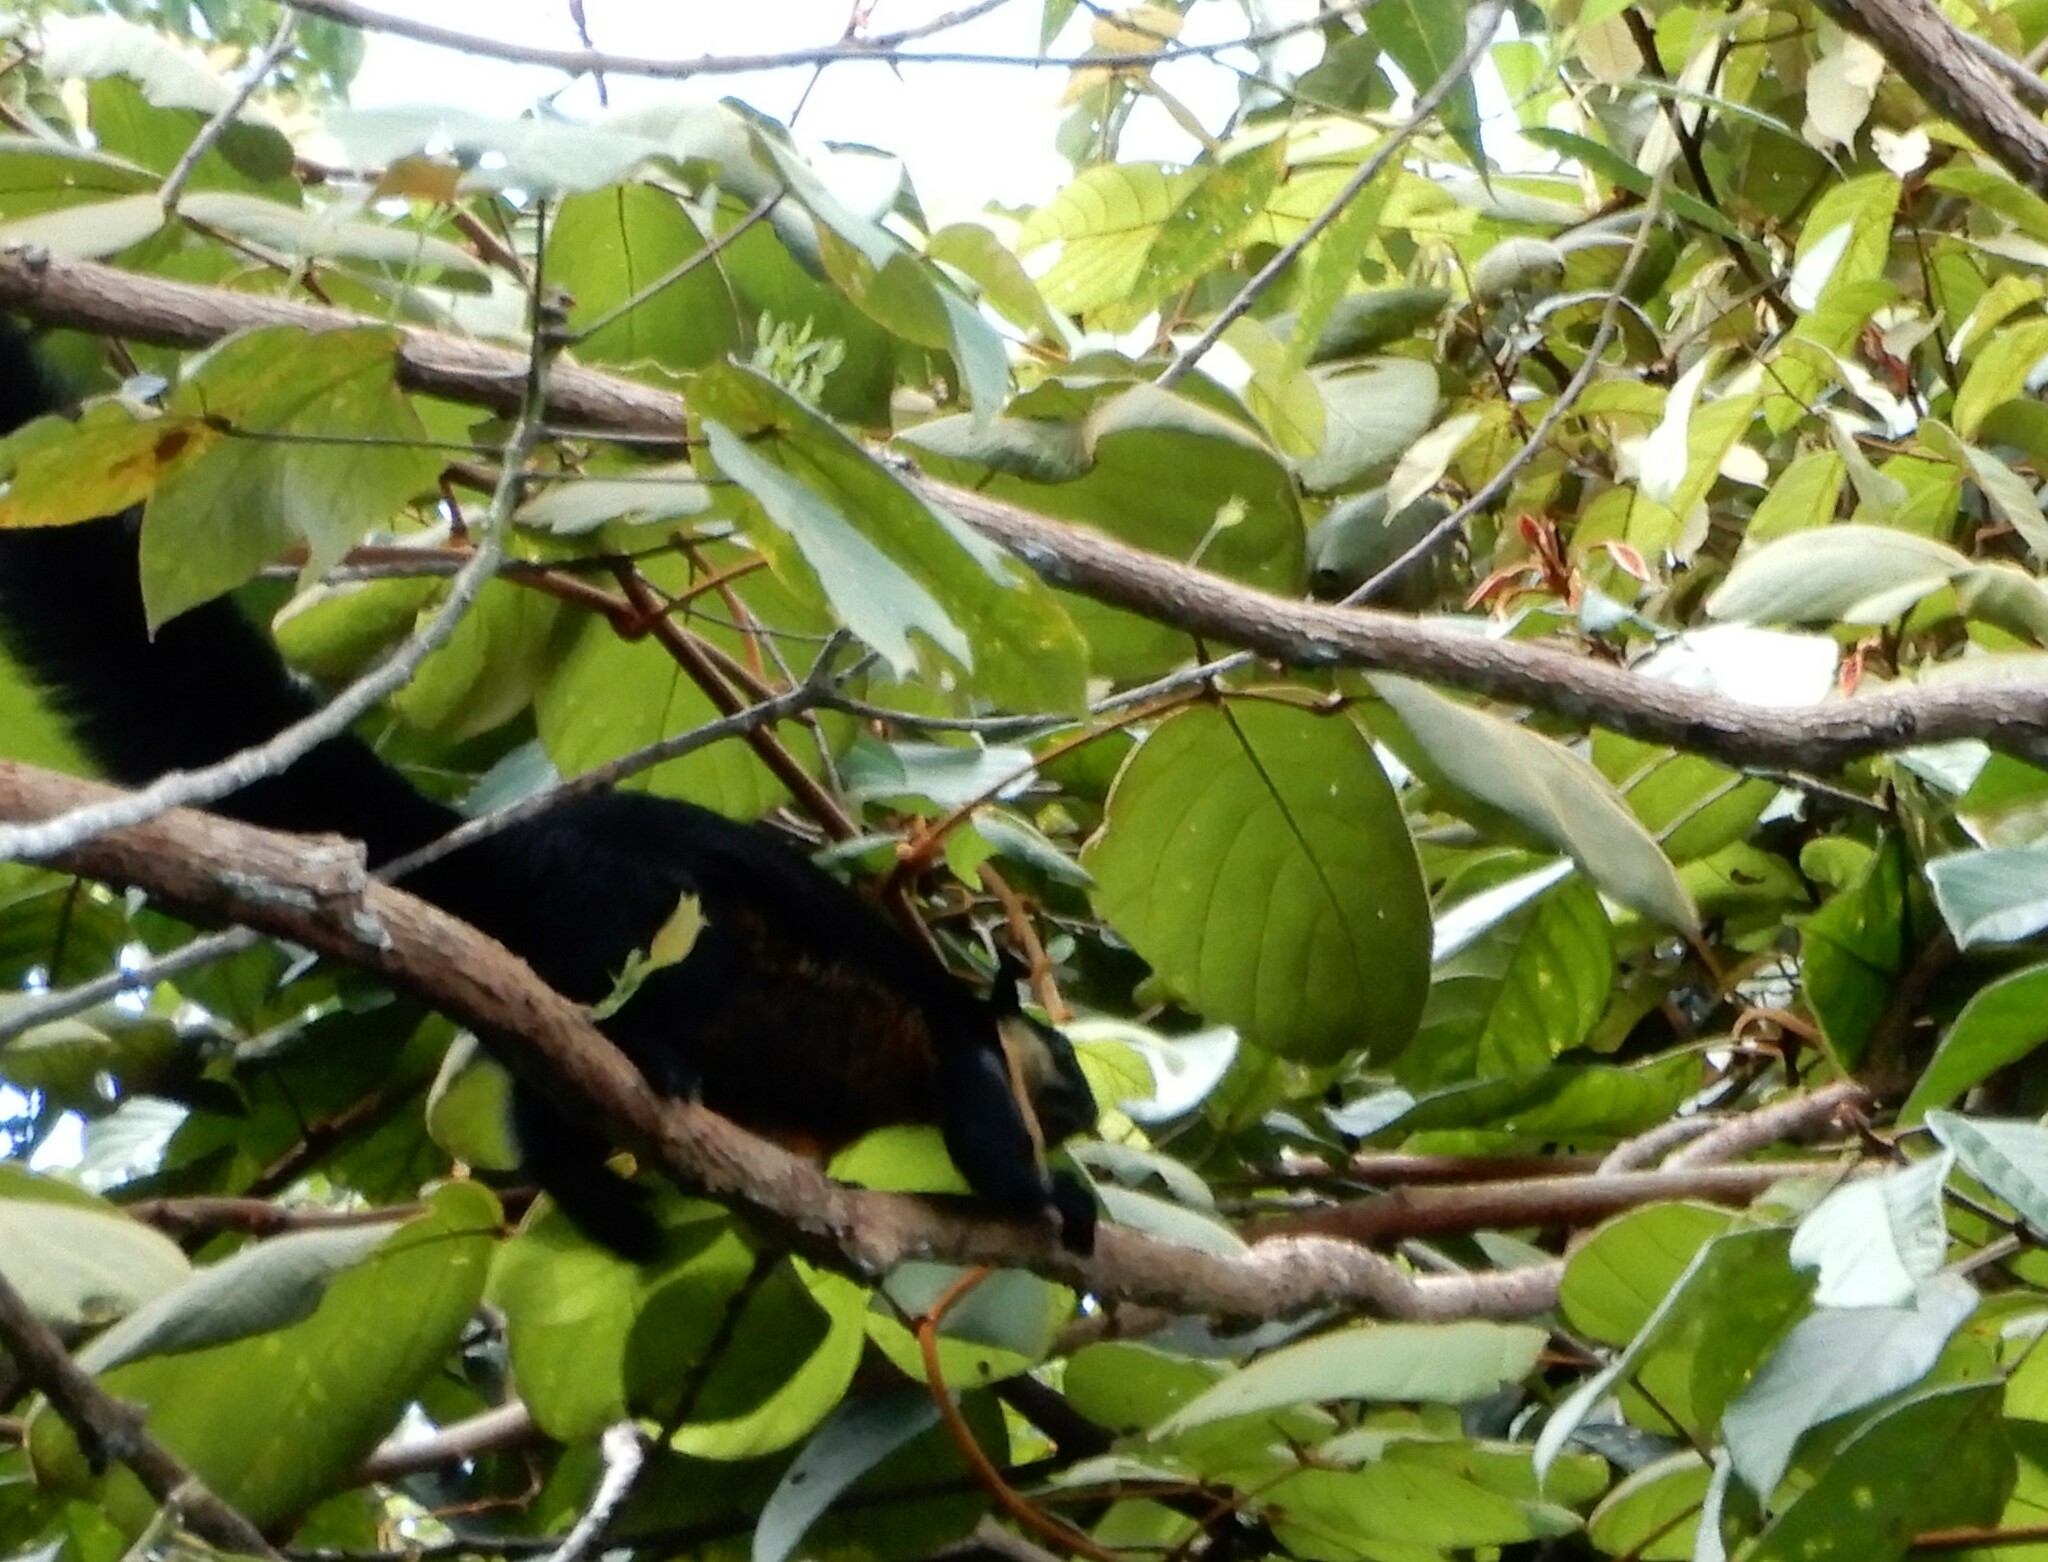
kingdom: Animalia
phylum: Chordata
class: Mammalia
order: Rodentia
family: Sciuridae
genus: Ratufa
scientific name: Ratufa bicolor
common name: Black giant squirrel
